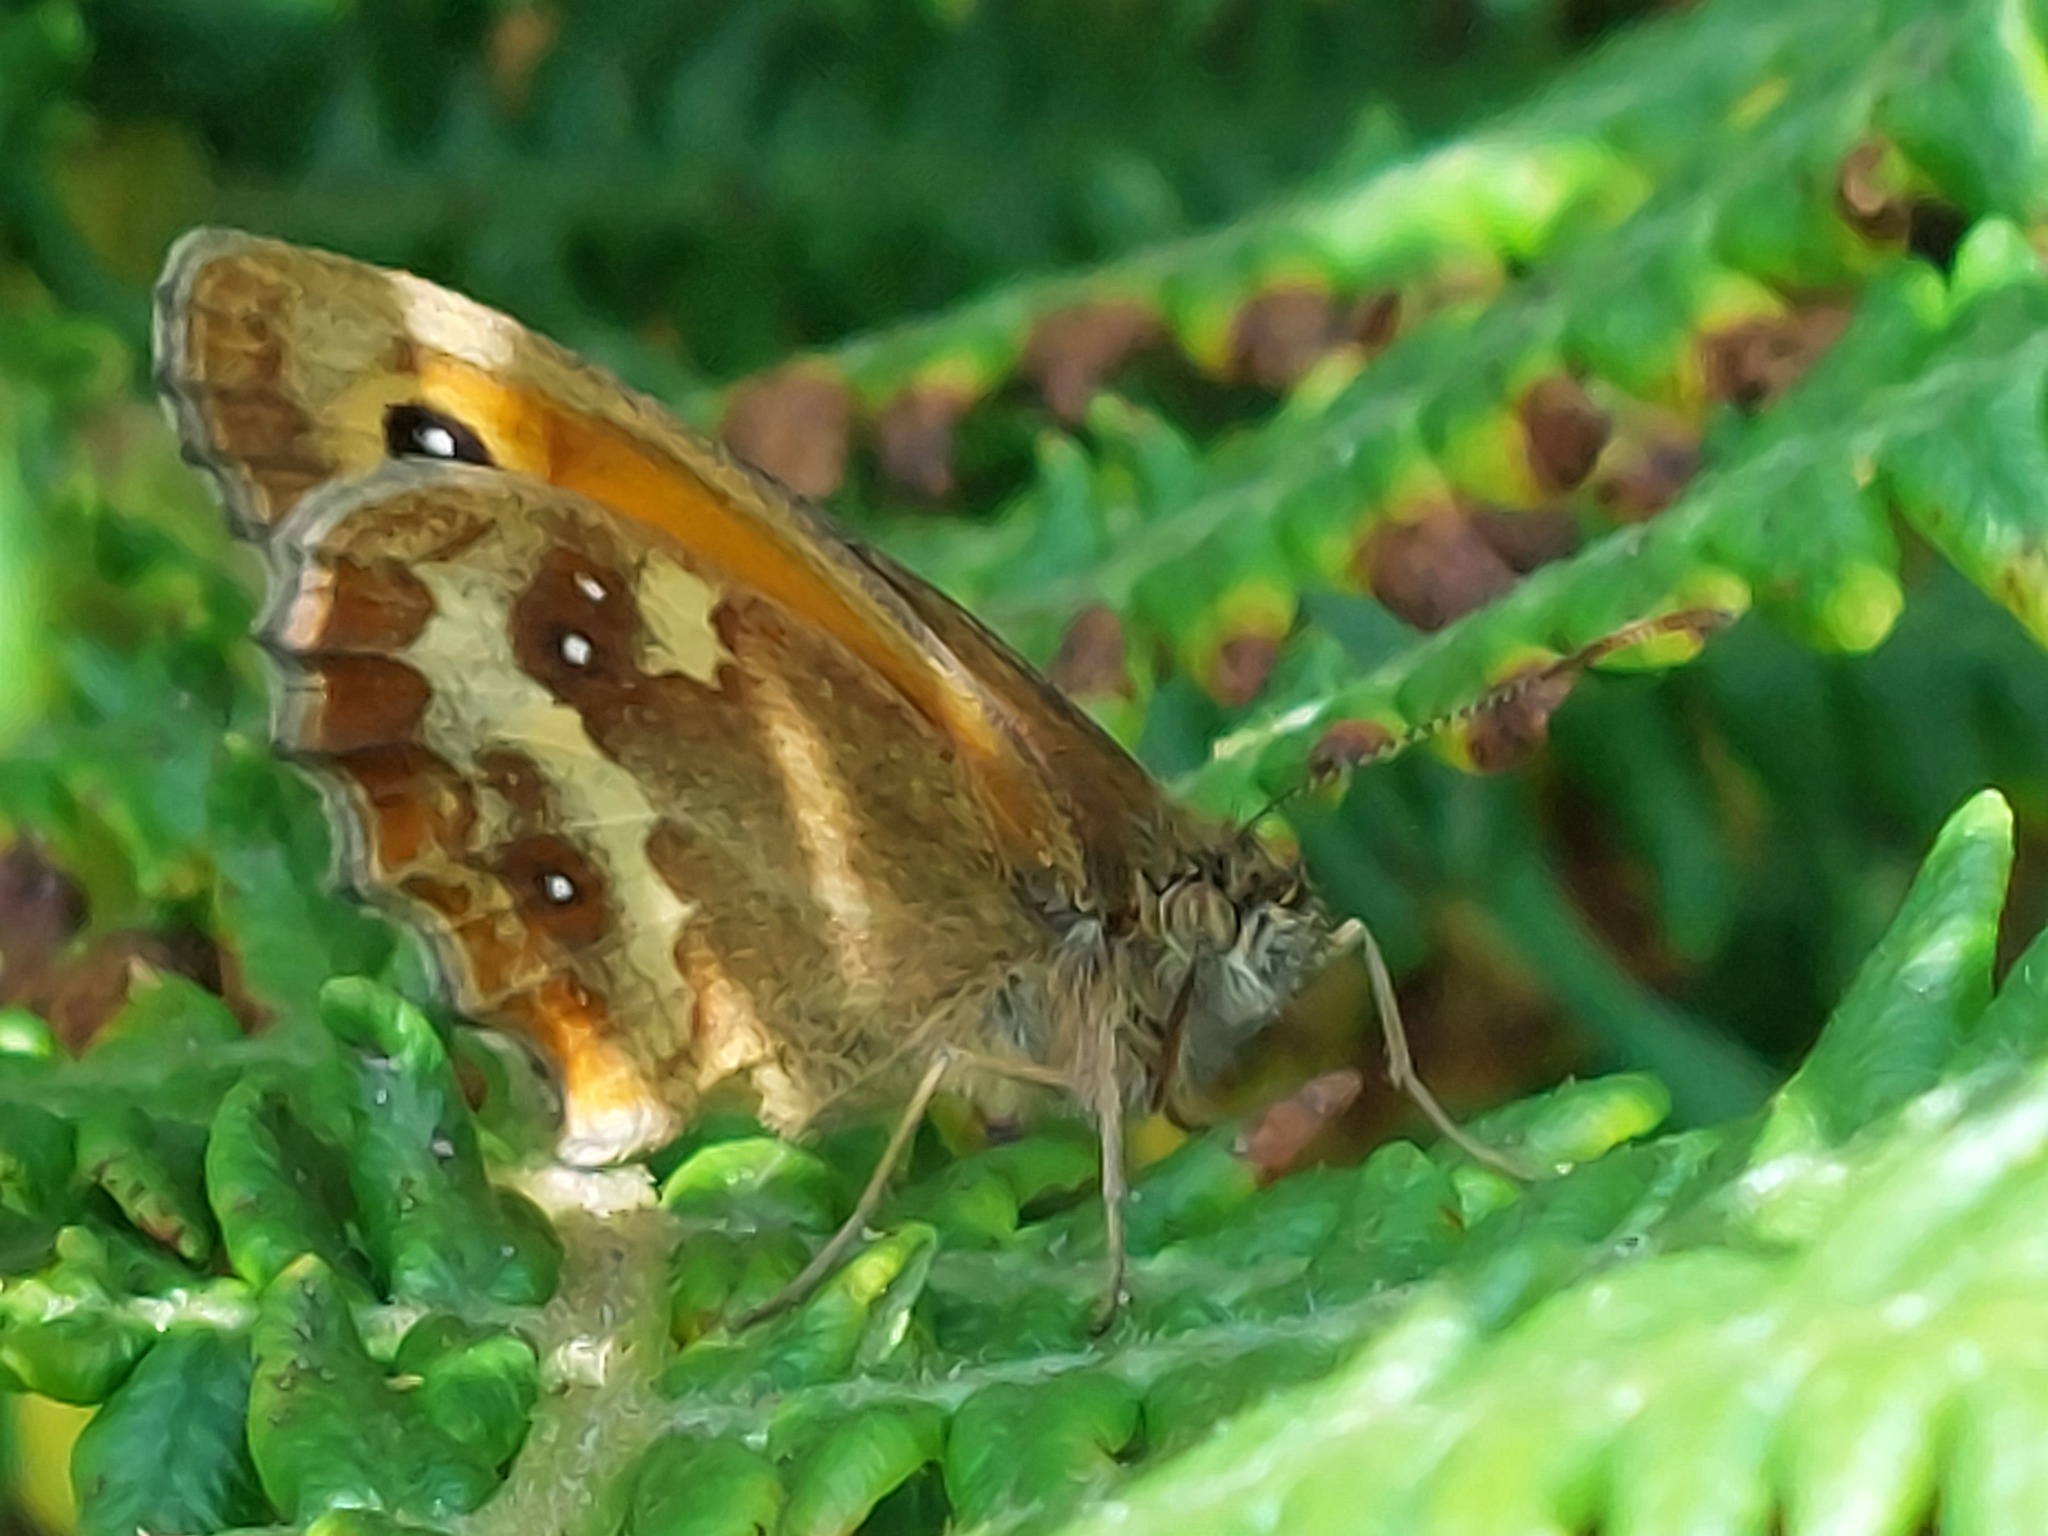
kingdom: Animalia
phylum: Arthropoda
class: Insecta
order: Lepidoptera
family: Nymphalidae
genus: Pyronia
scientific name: Pyronia tithonus
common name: Gatekeeper
